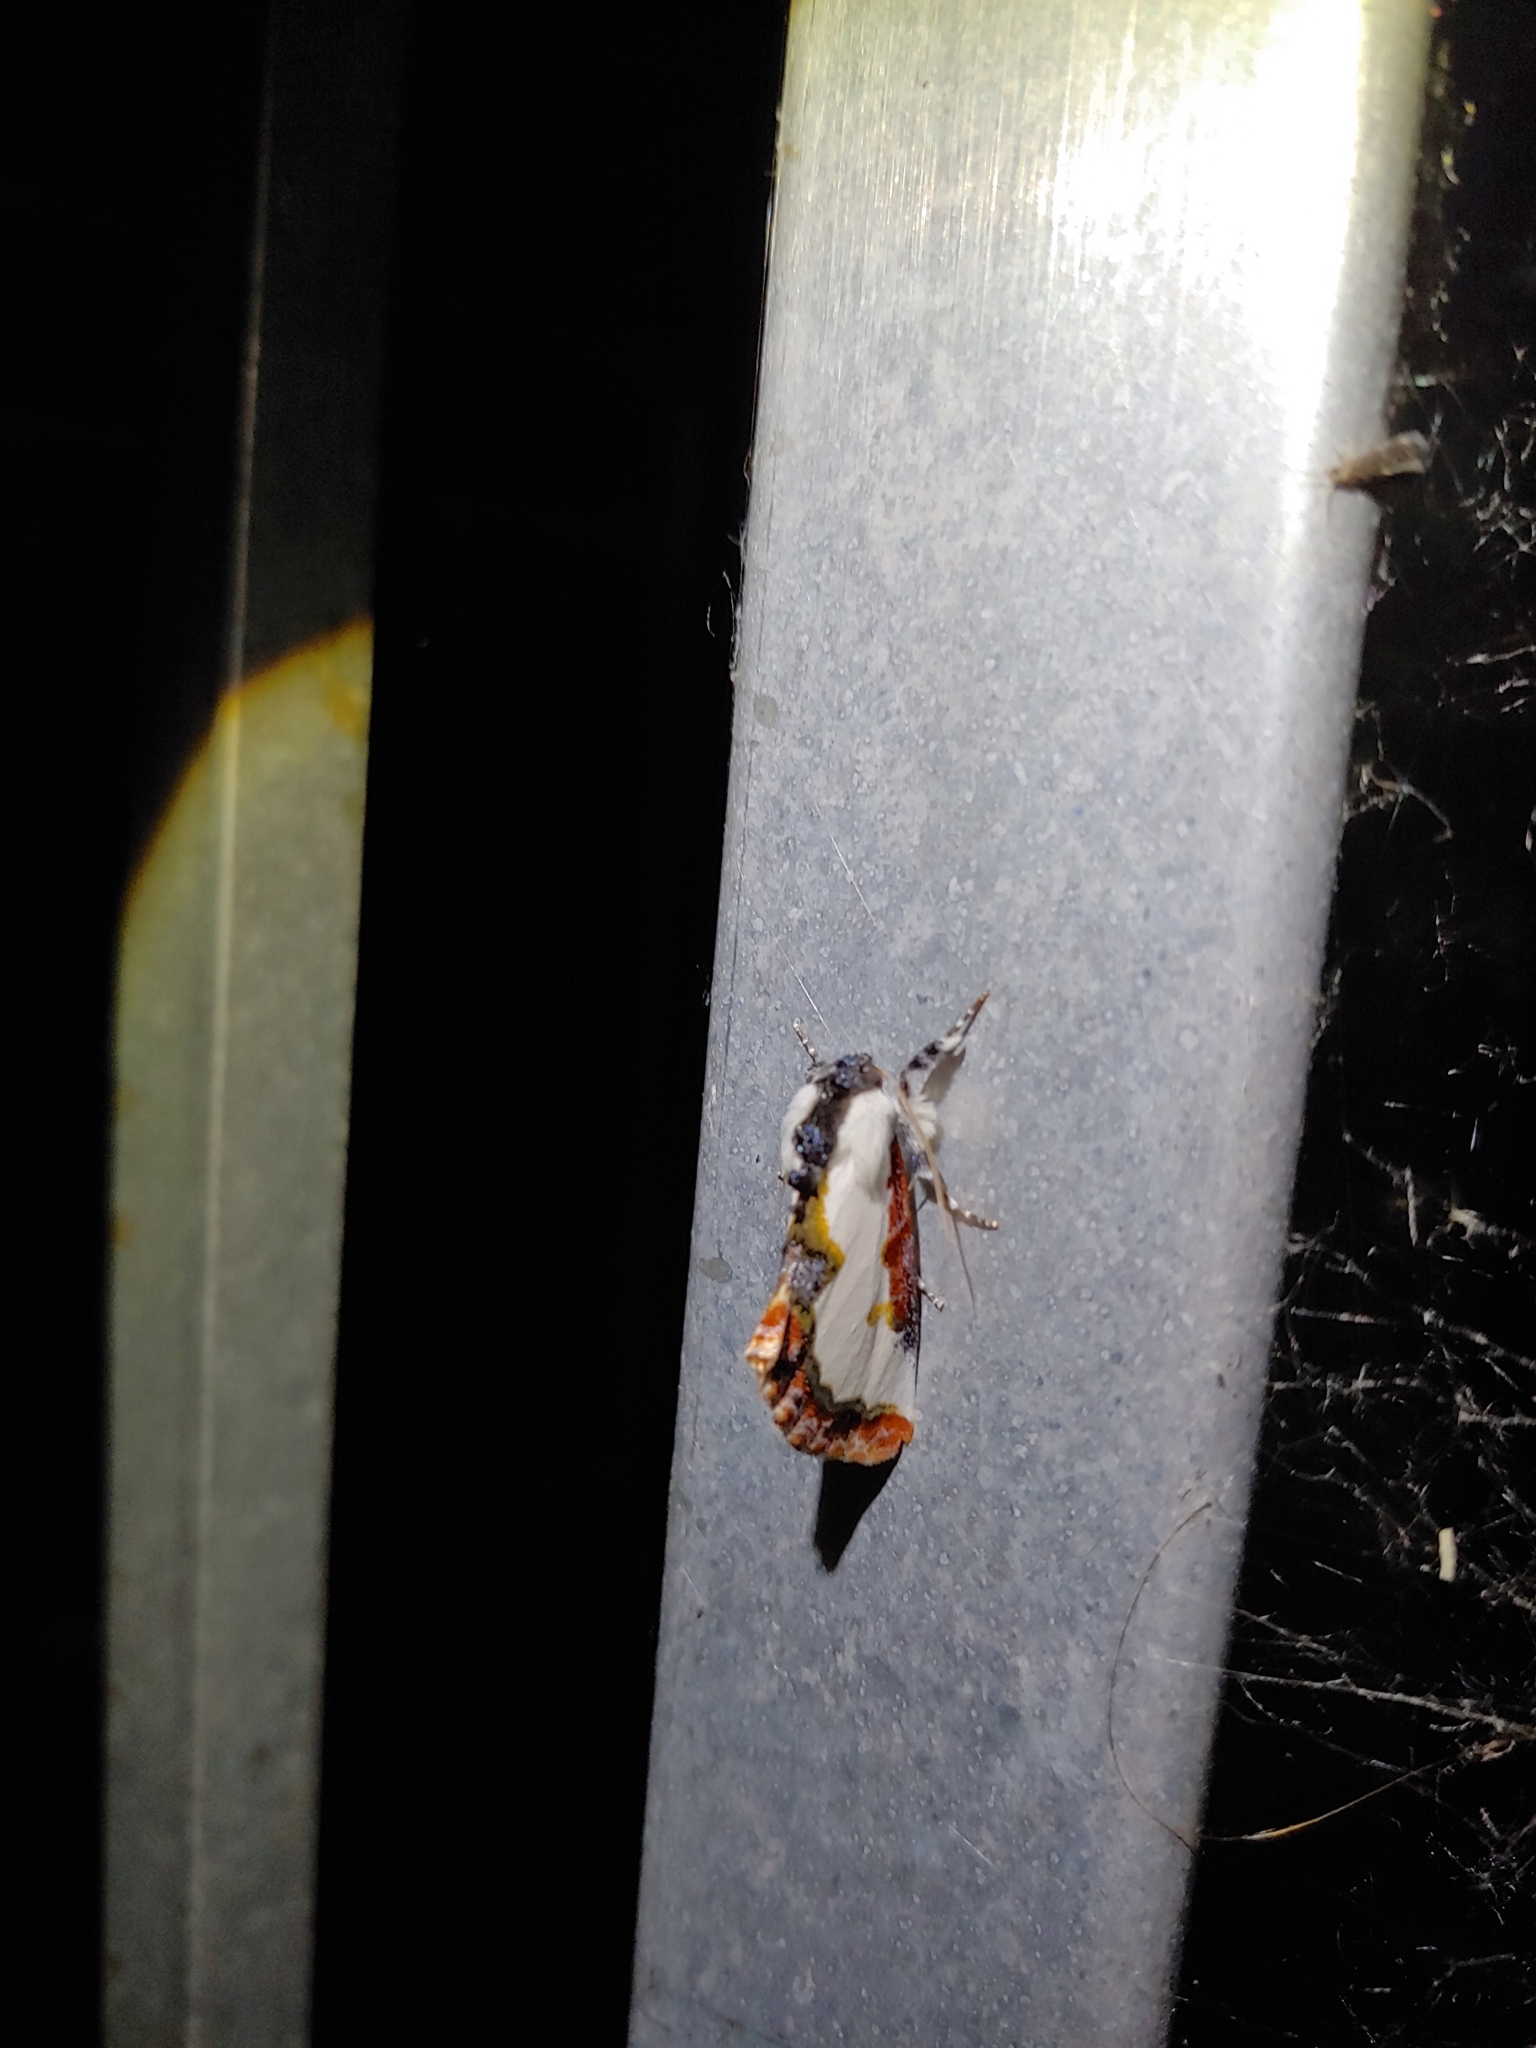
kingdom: Animalia
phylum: Arthropoda
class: Insecta
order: Lepidoptera
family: Noctuidae
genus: Eudryas
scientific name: Eudryas unio
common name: Pearly wood-nymph
